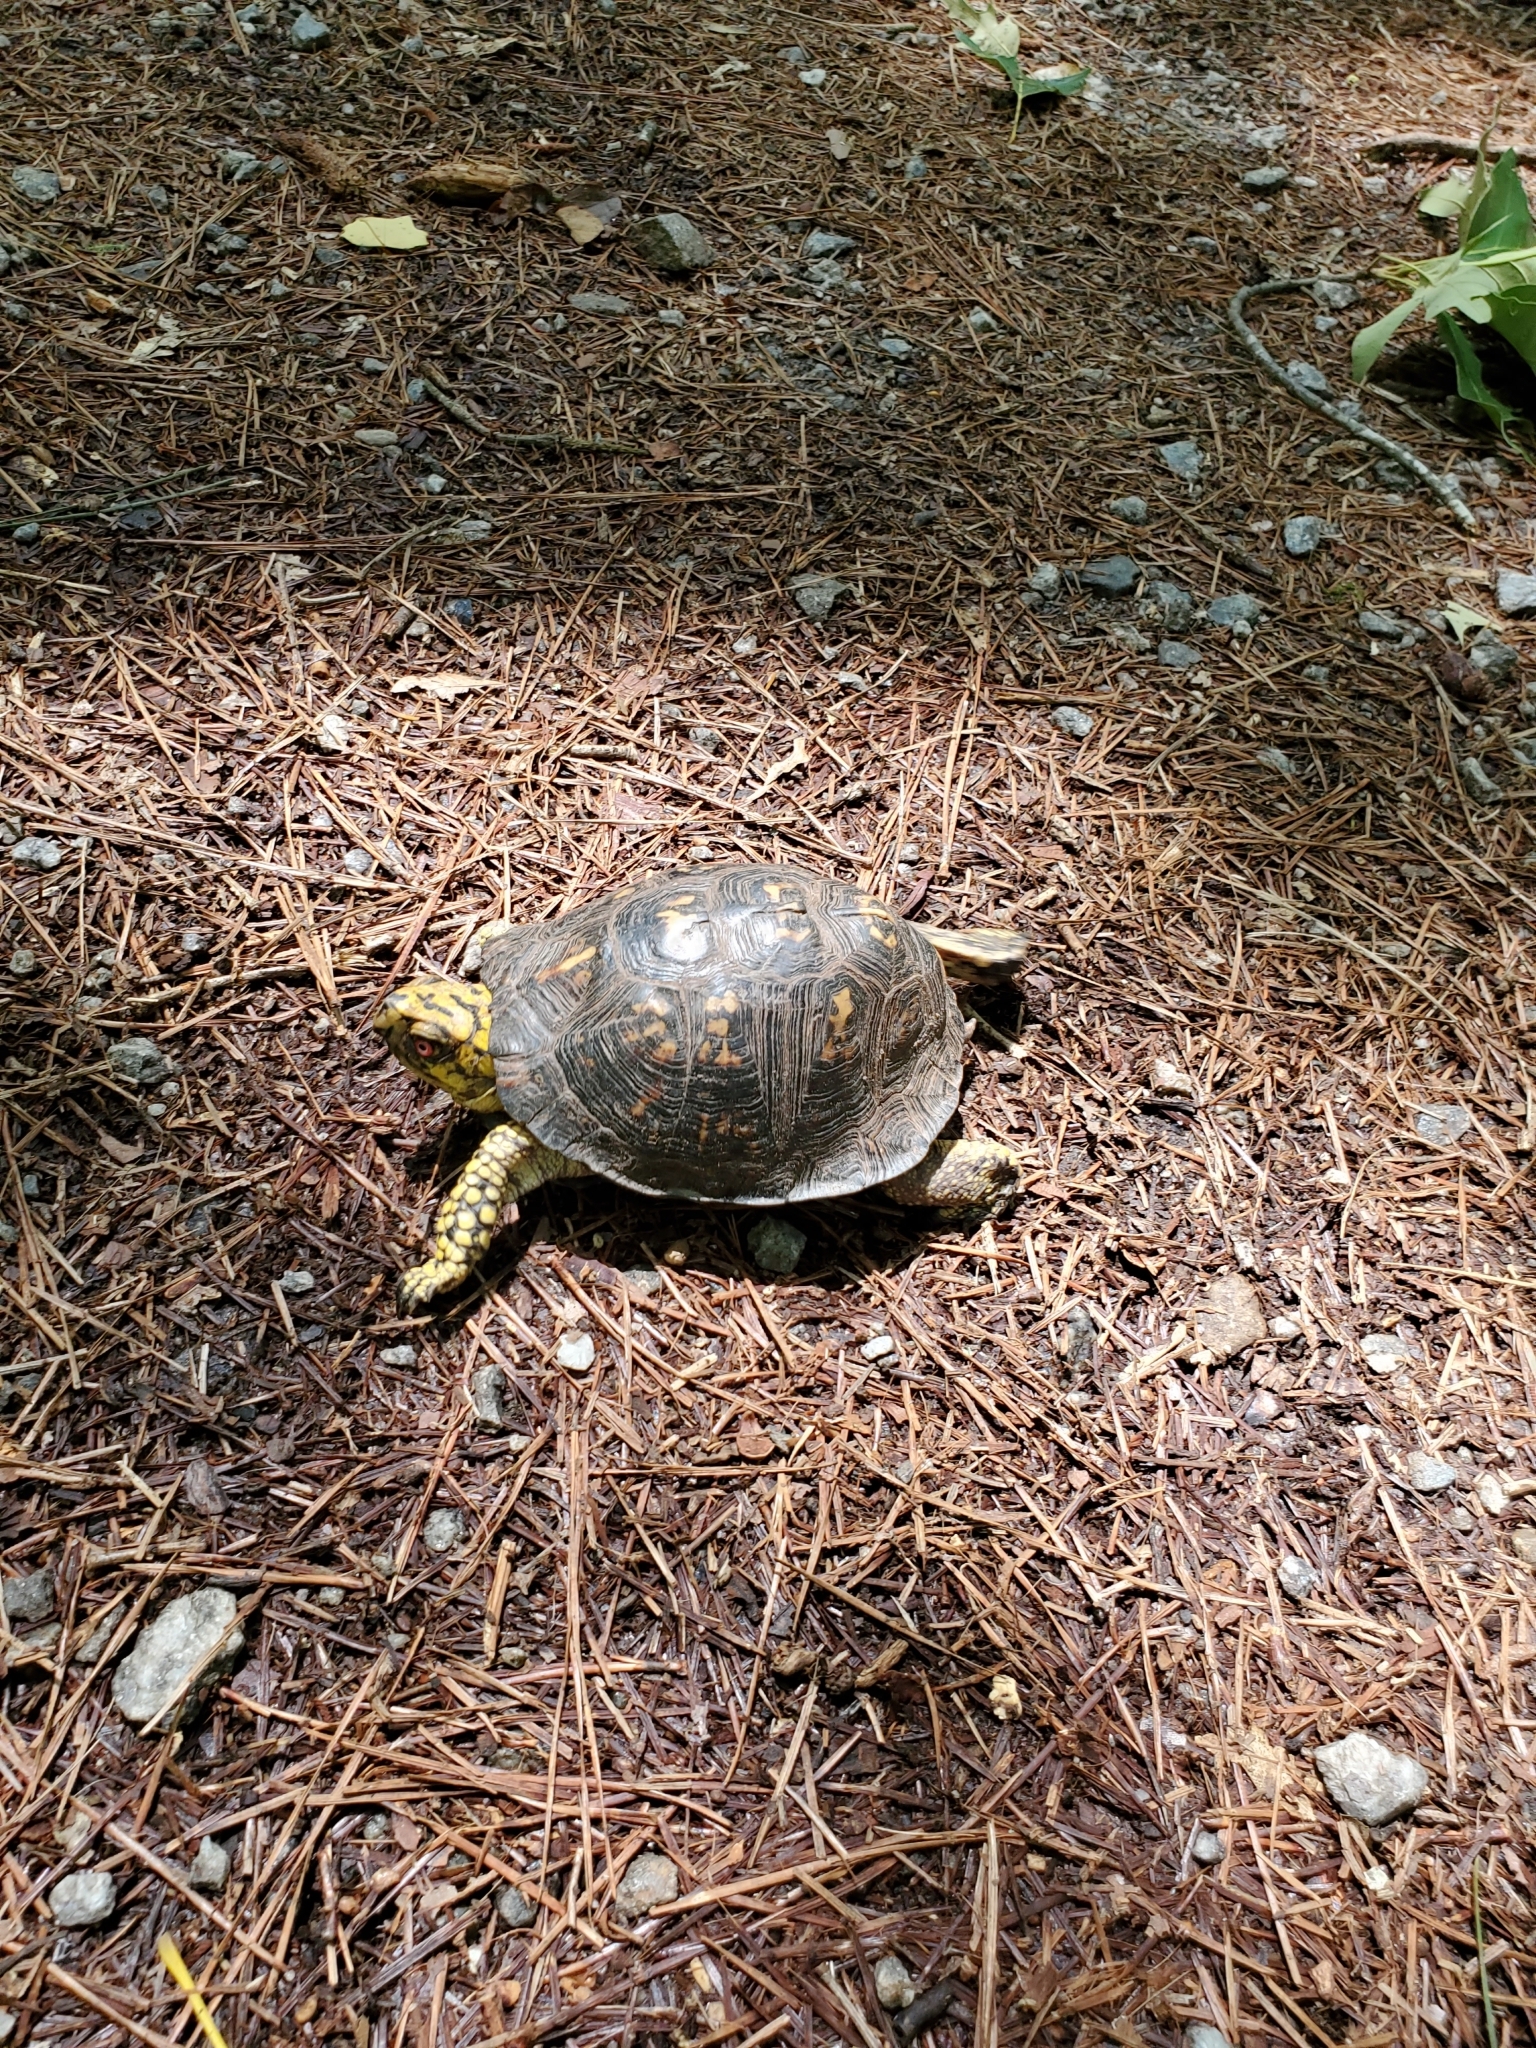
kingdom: Animalia
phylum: Chordata
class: Testudines
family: Emydidae
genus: Terrapene
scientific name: Terrapene carolina
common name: Common box turtle
